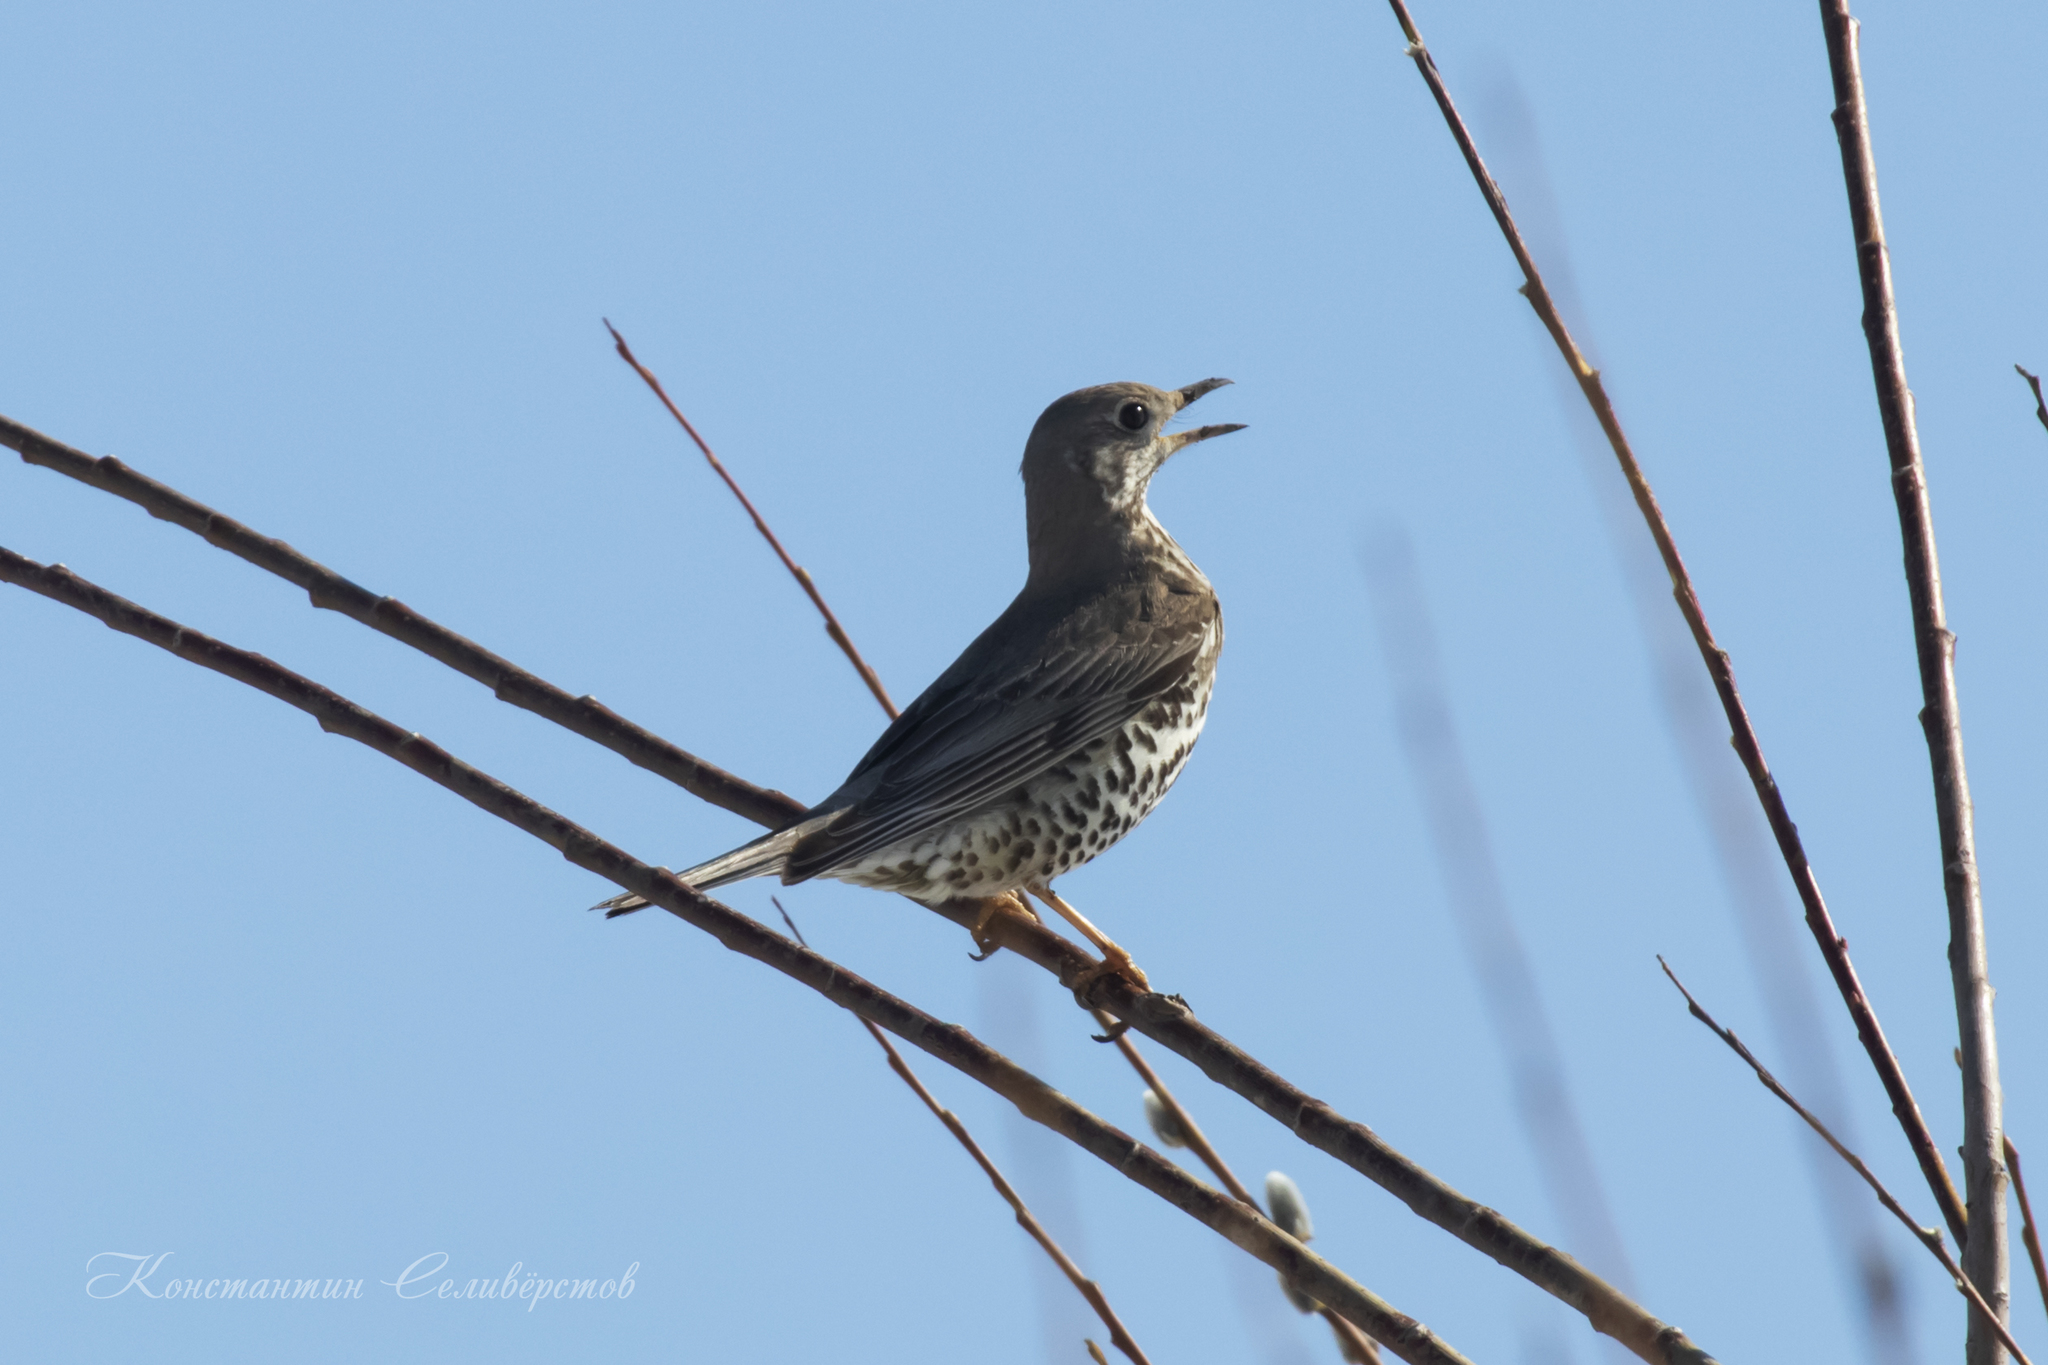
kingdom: Animalia
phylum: Chordata
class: Aves
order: Passeriformes
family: Turdidae
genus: Turdus
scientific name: Turdus viscivorus
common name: Mistle thrush
